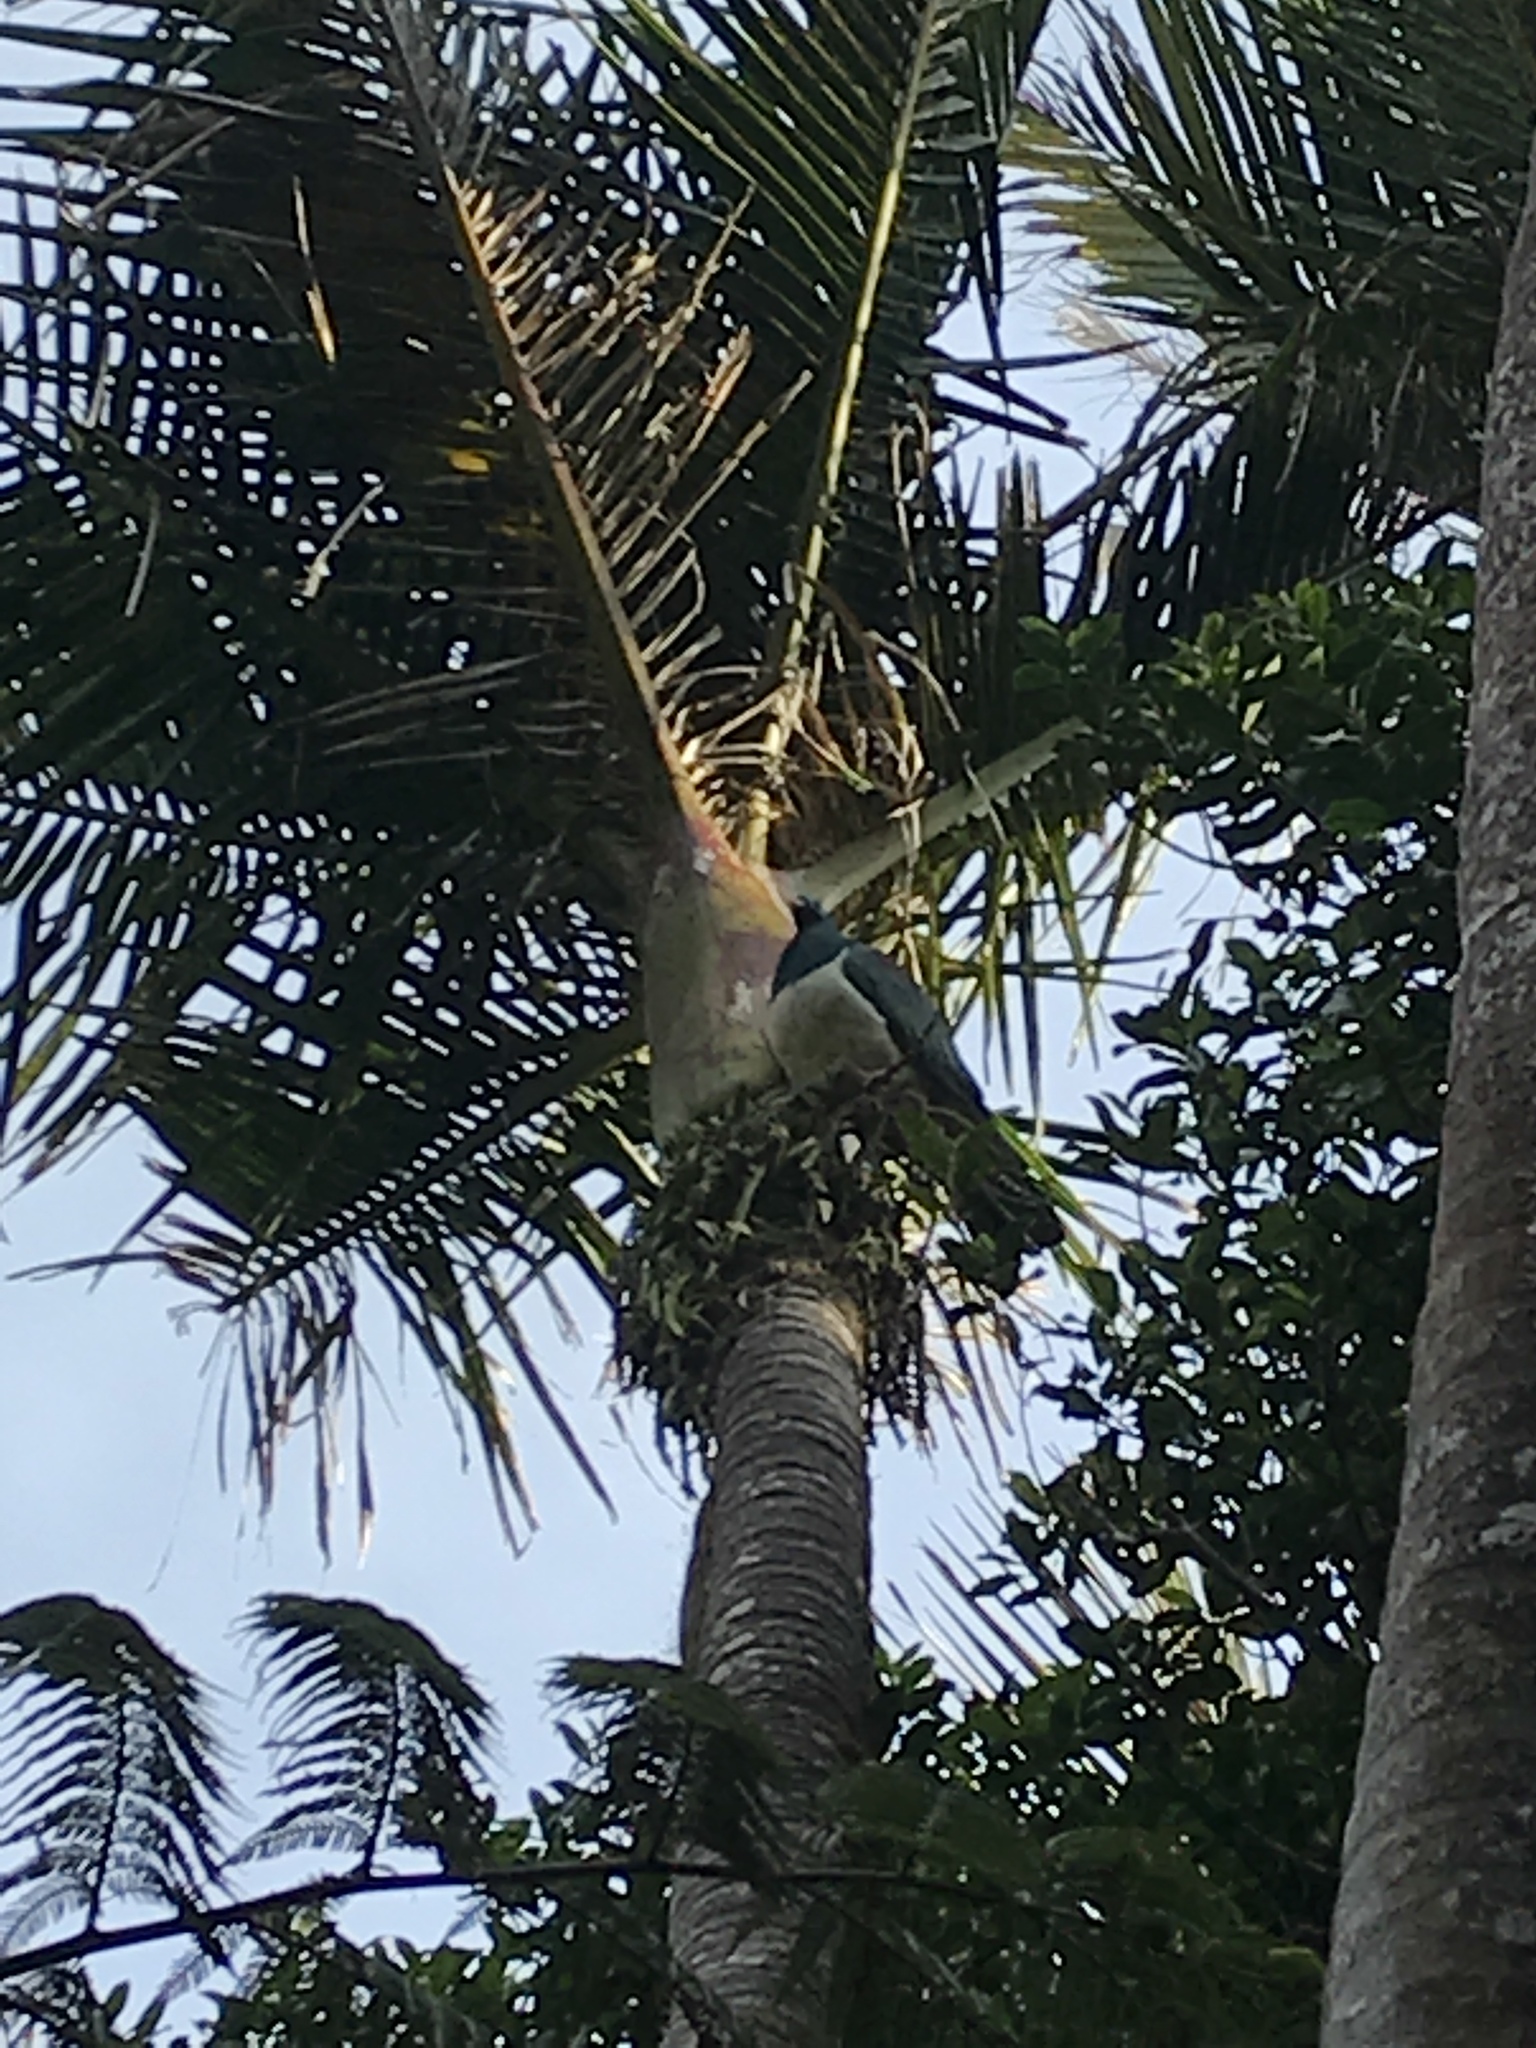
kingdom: Animalia
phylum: Chordata
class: Aves
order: Columbiformes
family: Columbidae
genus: Hemiphaga
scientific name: Hemiphaga novaeseelandiae
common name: New zealand pigeon
